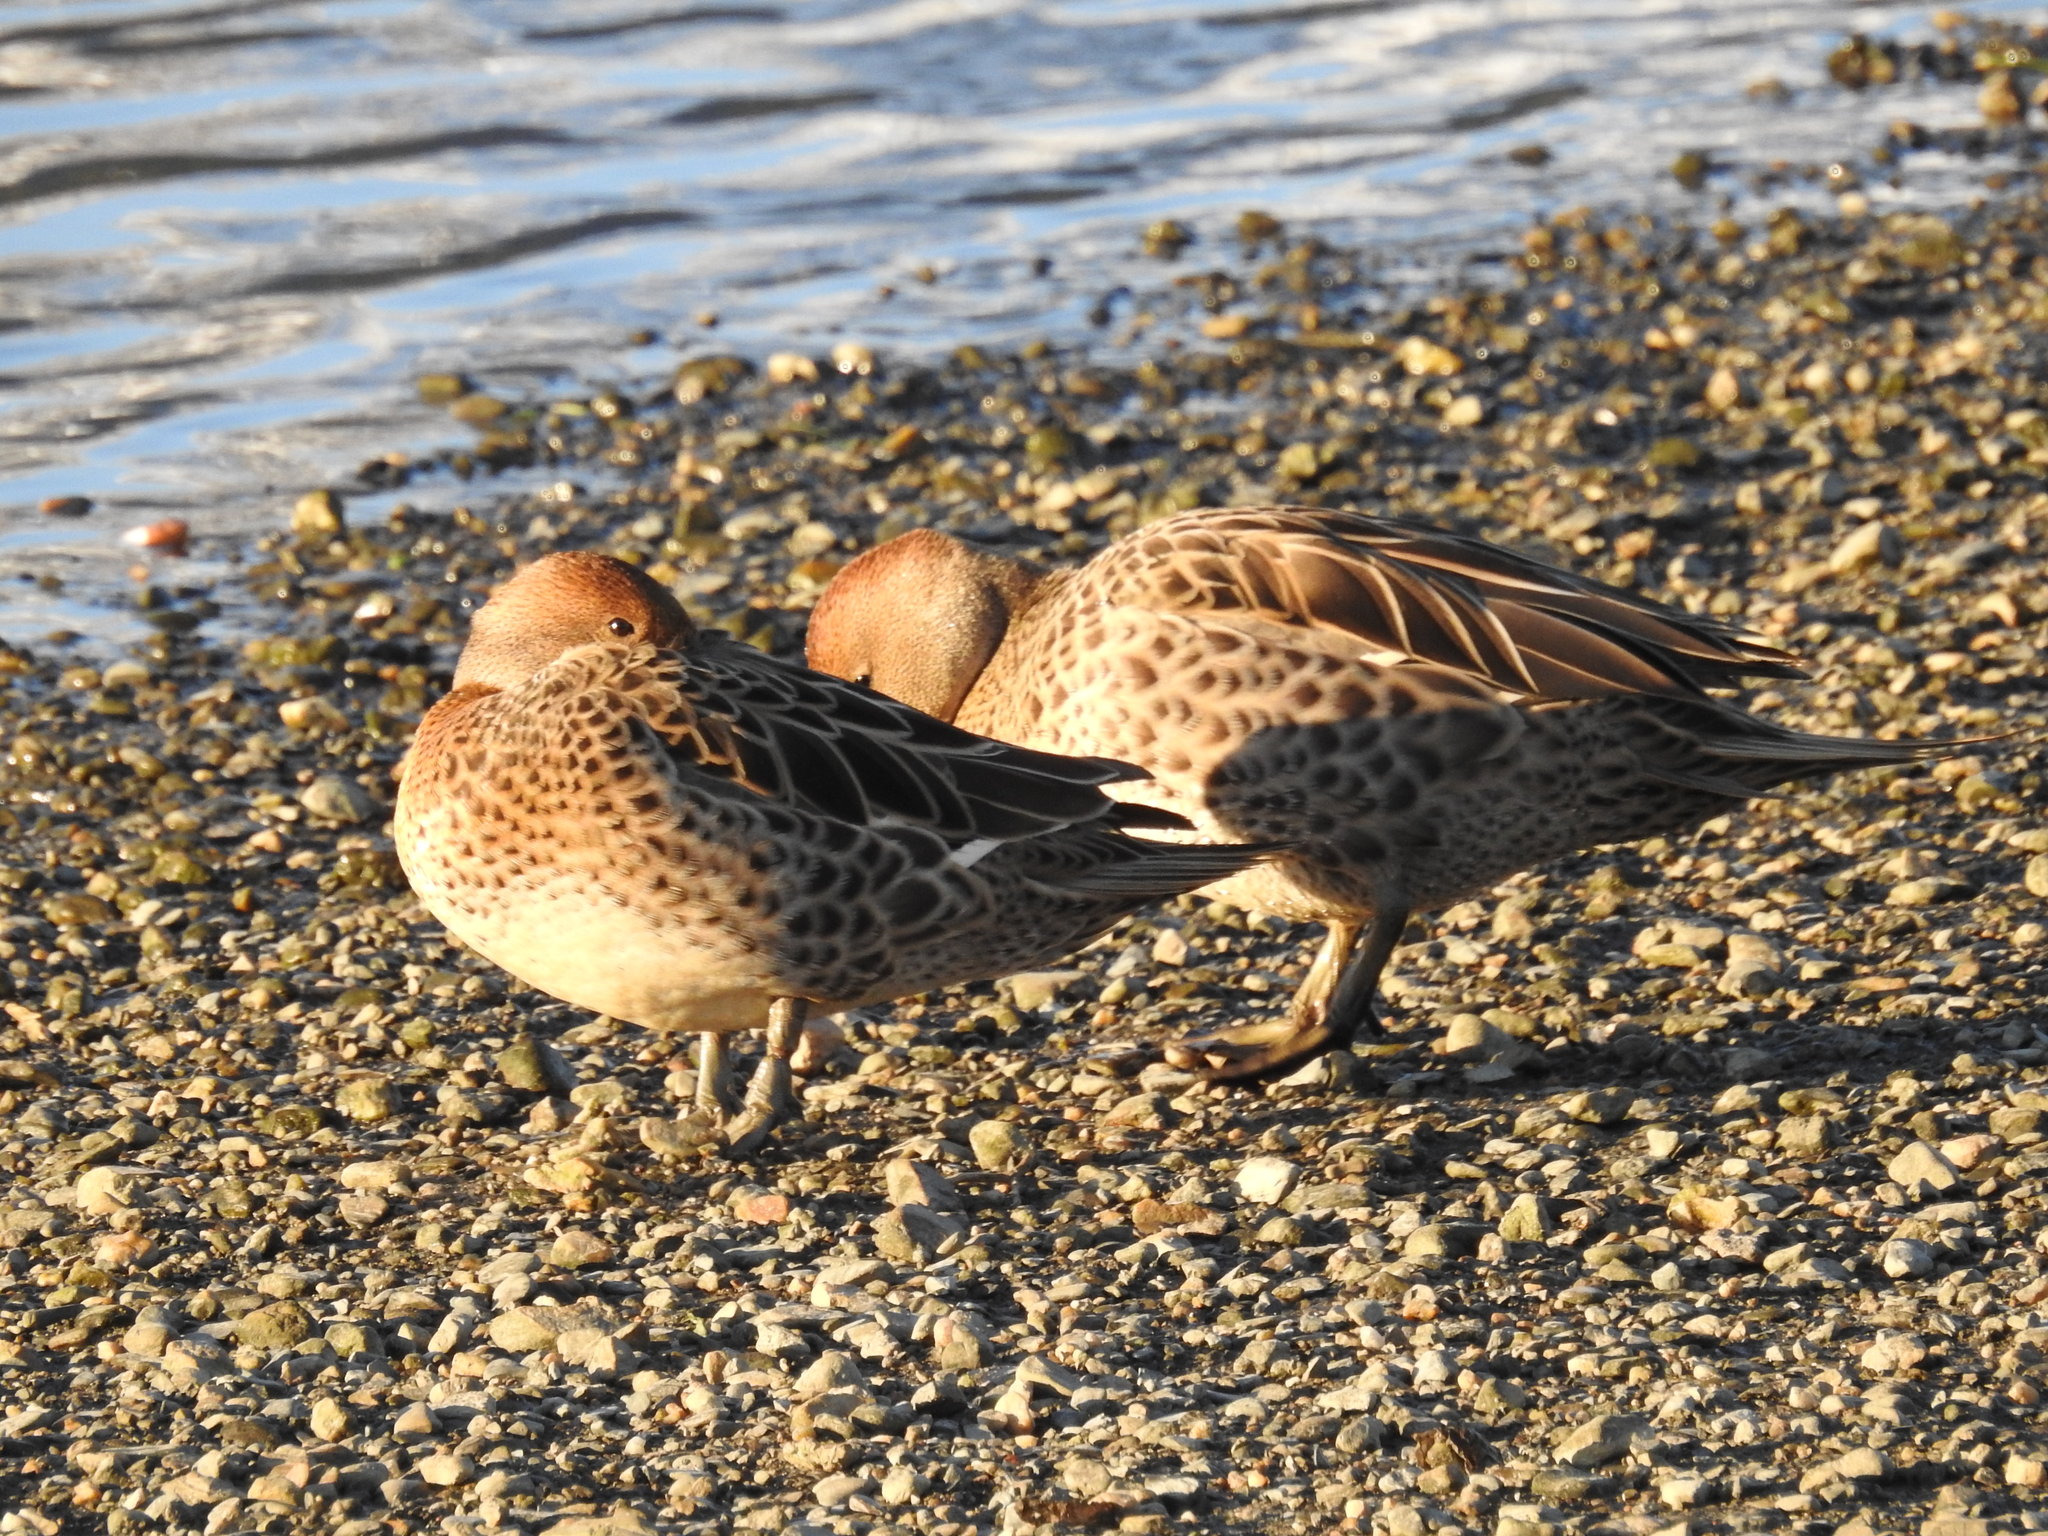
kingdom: Animalia
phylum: Chordata
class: Aves
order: Anseriformes
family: Anatidae
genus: Anas
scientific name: Anas georgica
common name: Yellow-billed pintail
